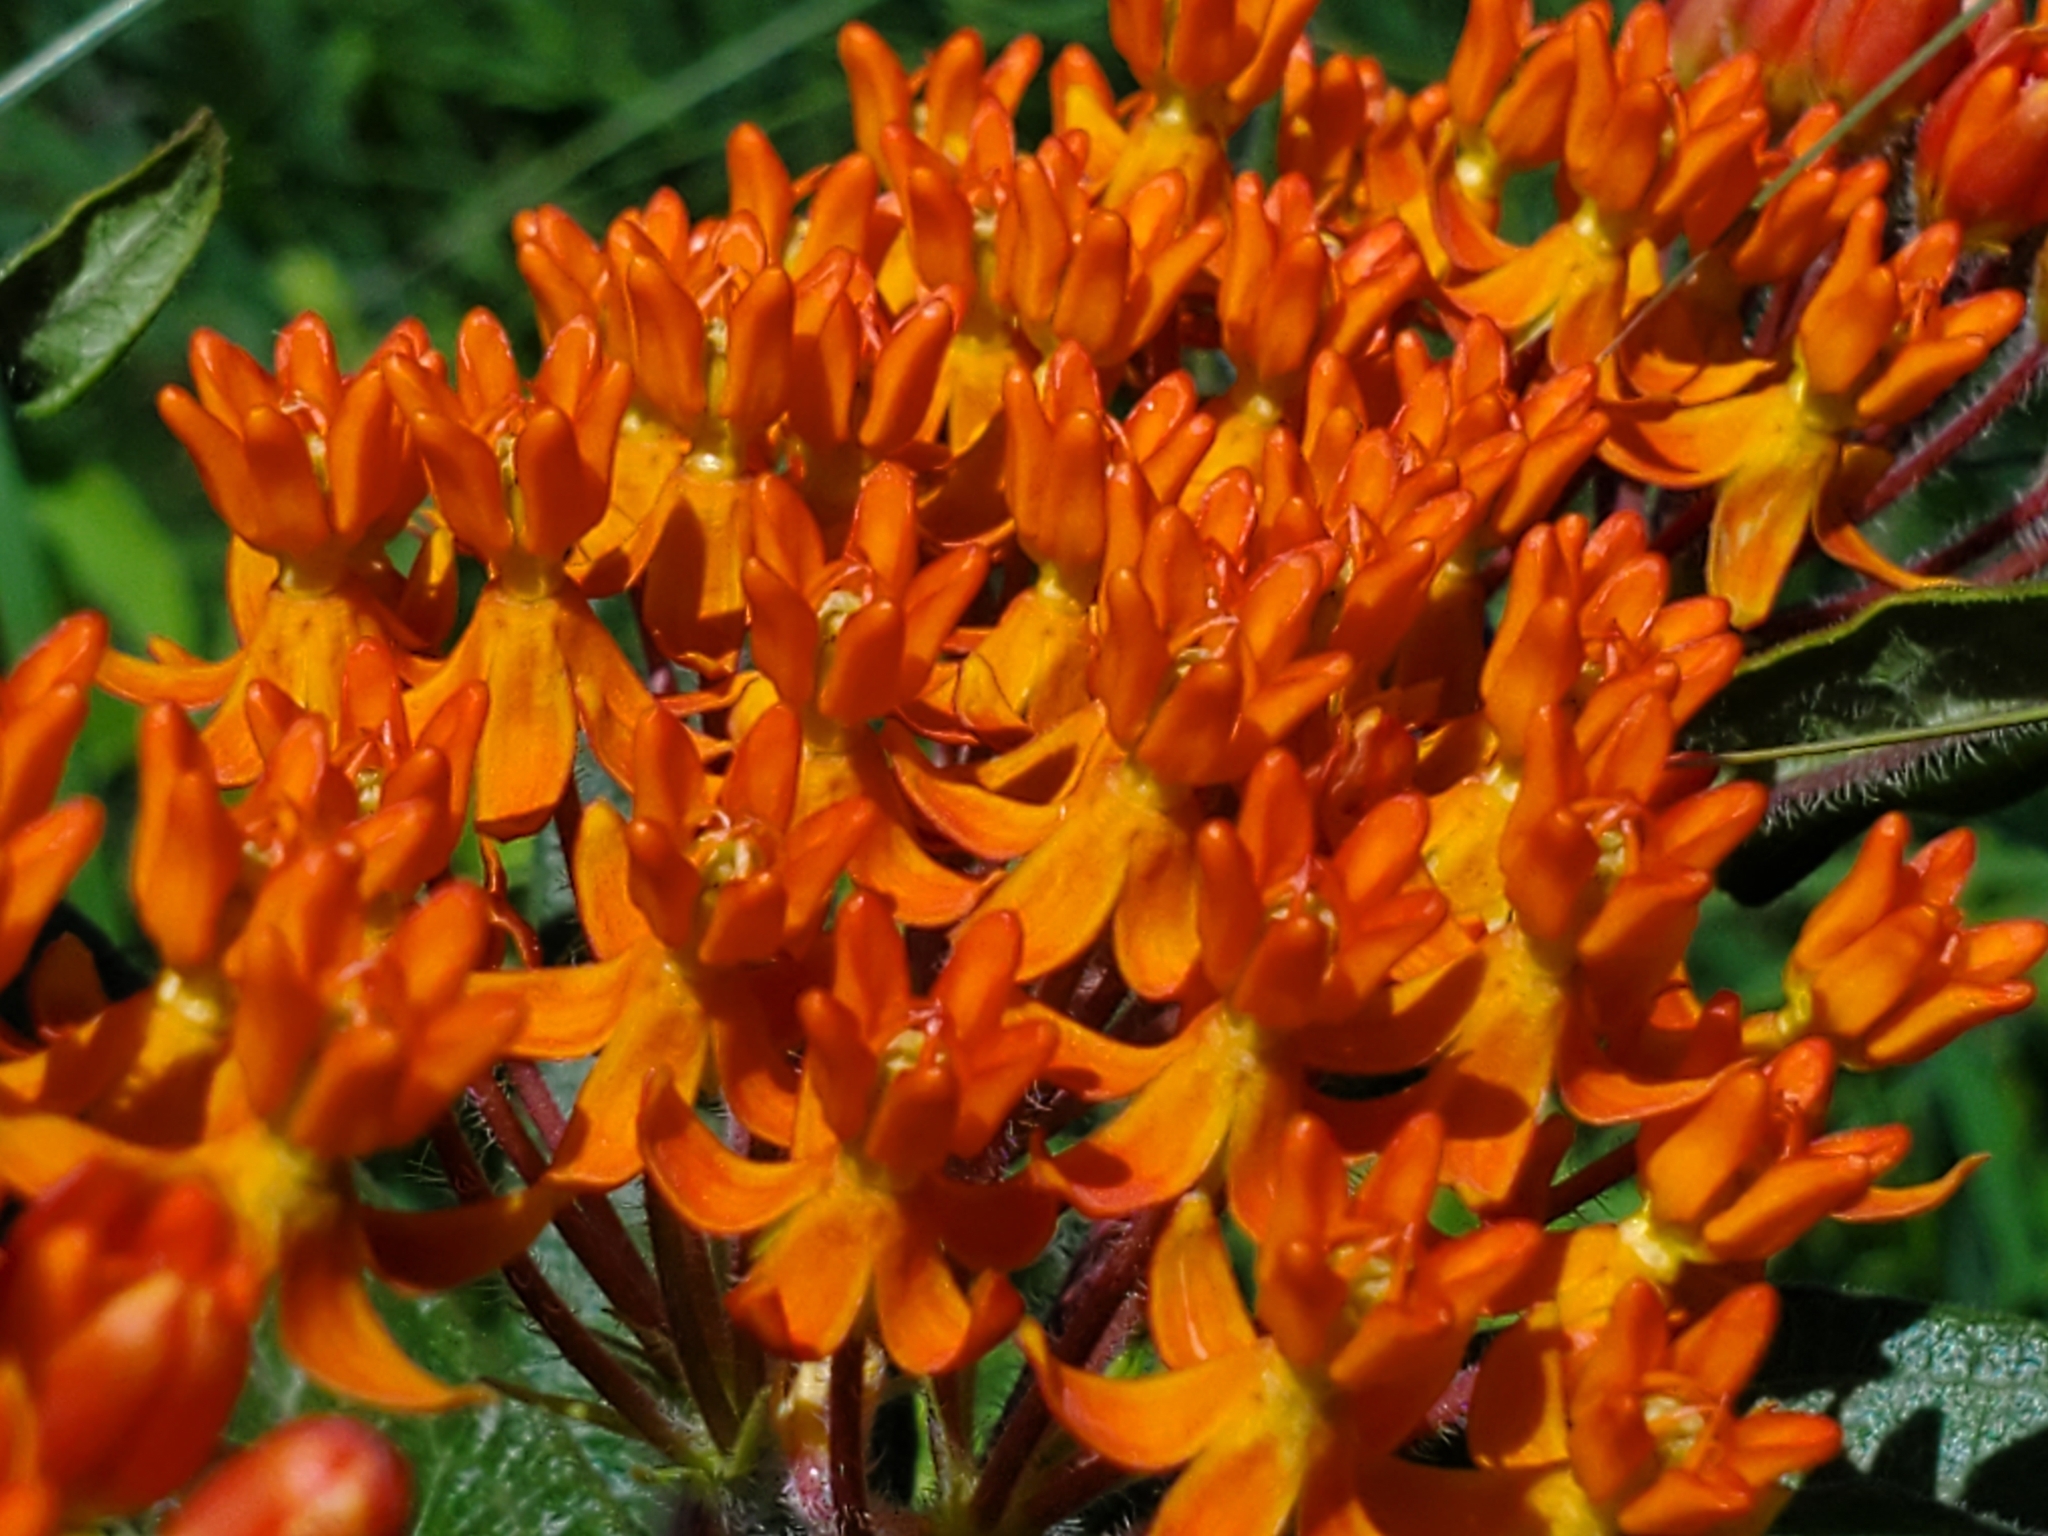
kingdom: Plantae
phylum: Tracheophyta
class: Magnoliopsida
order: Gentianales
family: Apocynaceae
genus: Asclepias
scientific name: Asclepias tuberosa
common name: Butterfly milkweed
